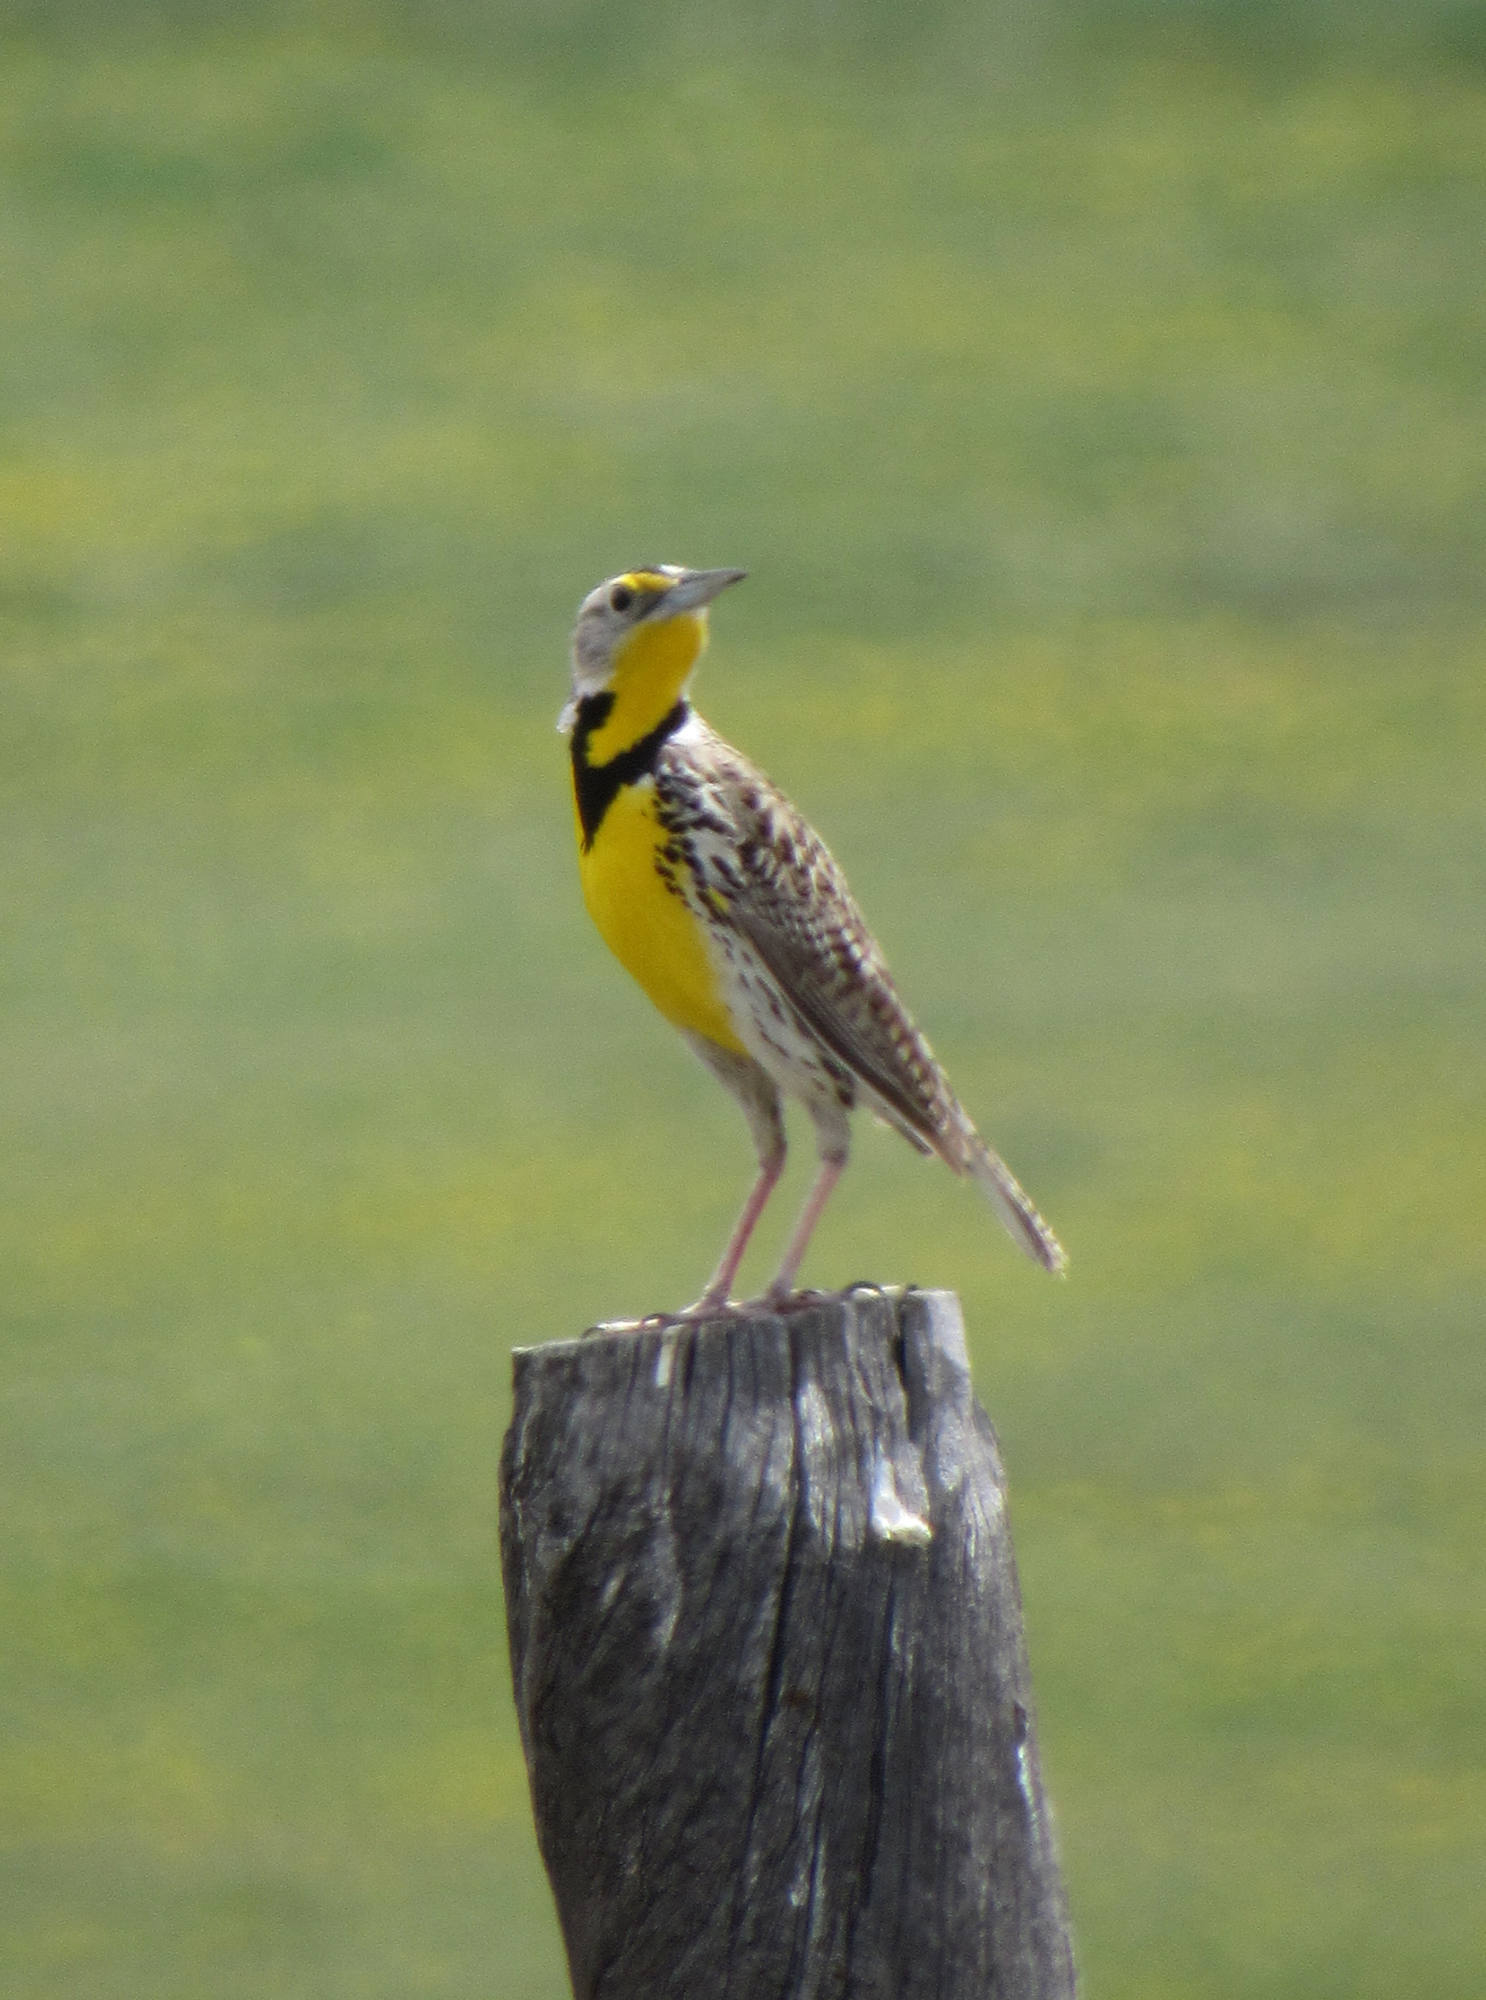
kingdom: Animalia
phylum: Chordata
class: Aves
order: Passeriformes
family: Icteridae
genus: Sturnella
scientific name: Sturnella neglecta
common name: Western meadowlark
